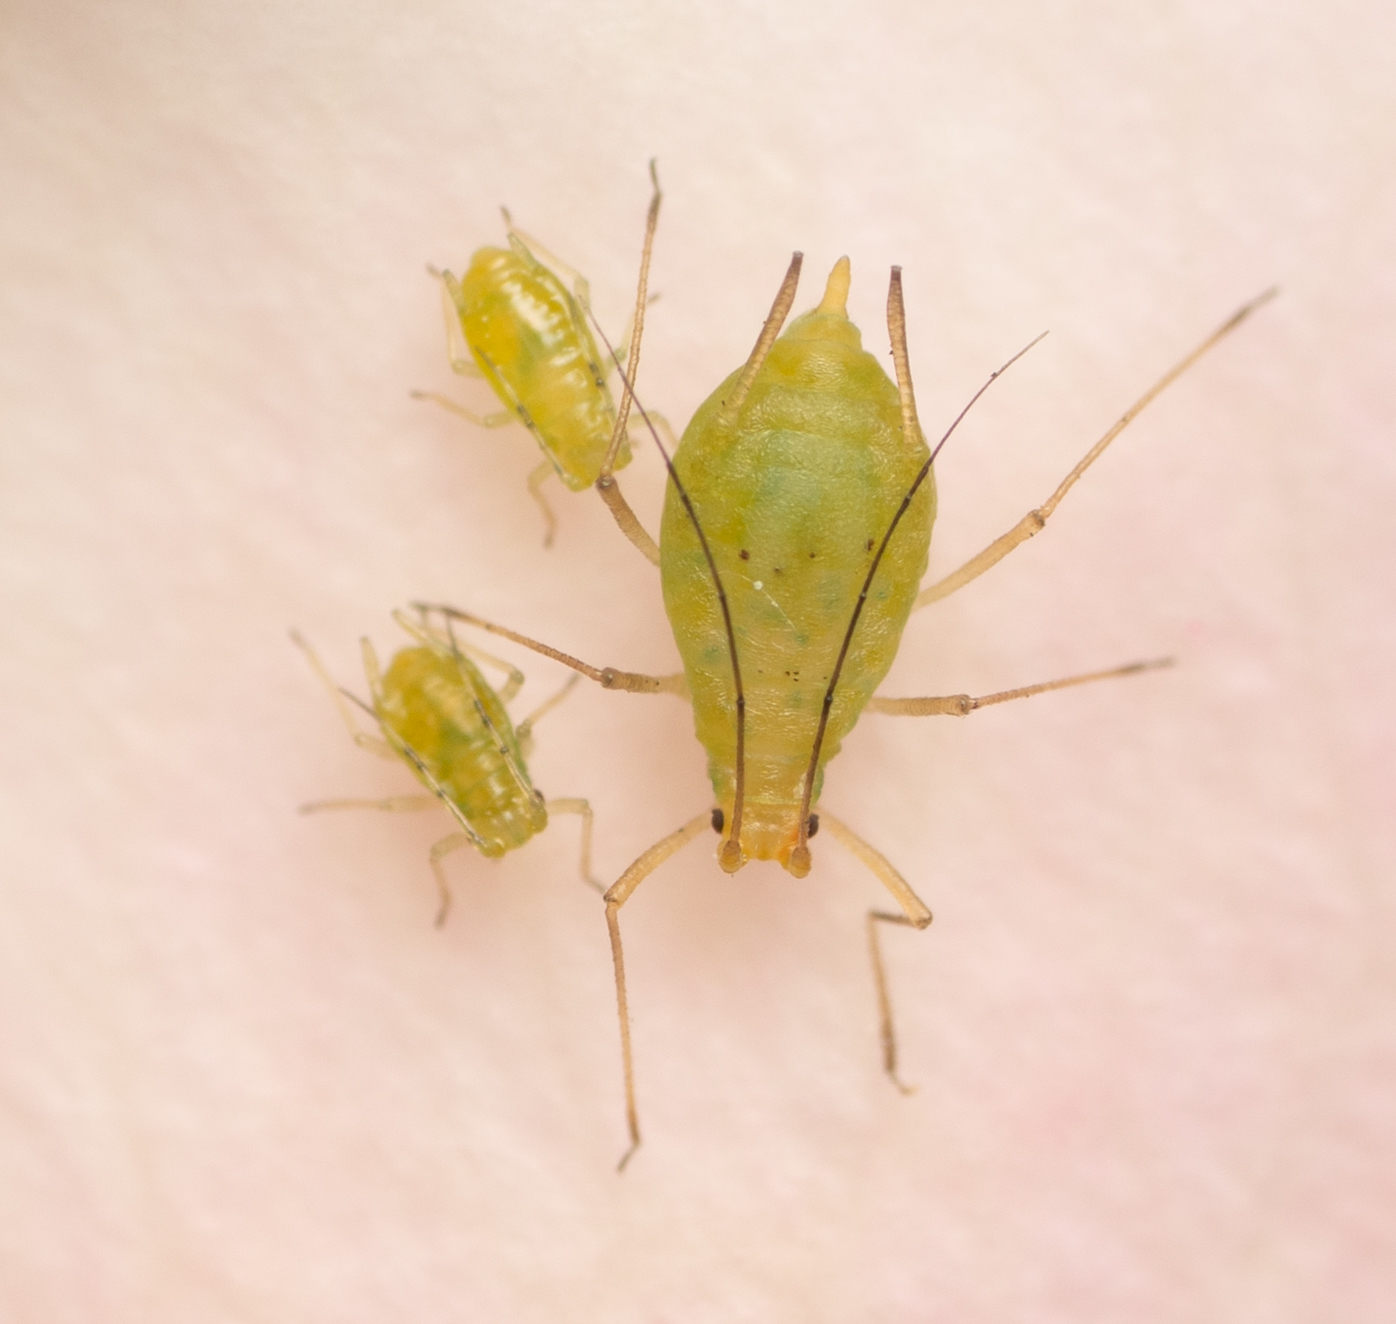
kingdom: Animalia
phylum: Arthropoda
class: Insecta
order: Hemiptera
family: Aphididae
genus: Wahlgreniella
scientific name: Wahlgreniella nervata
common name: Pale green aphid
